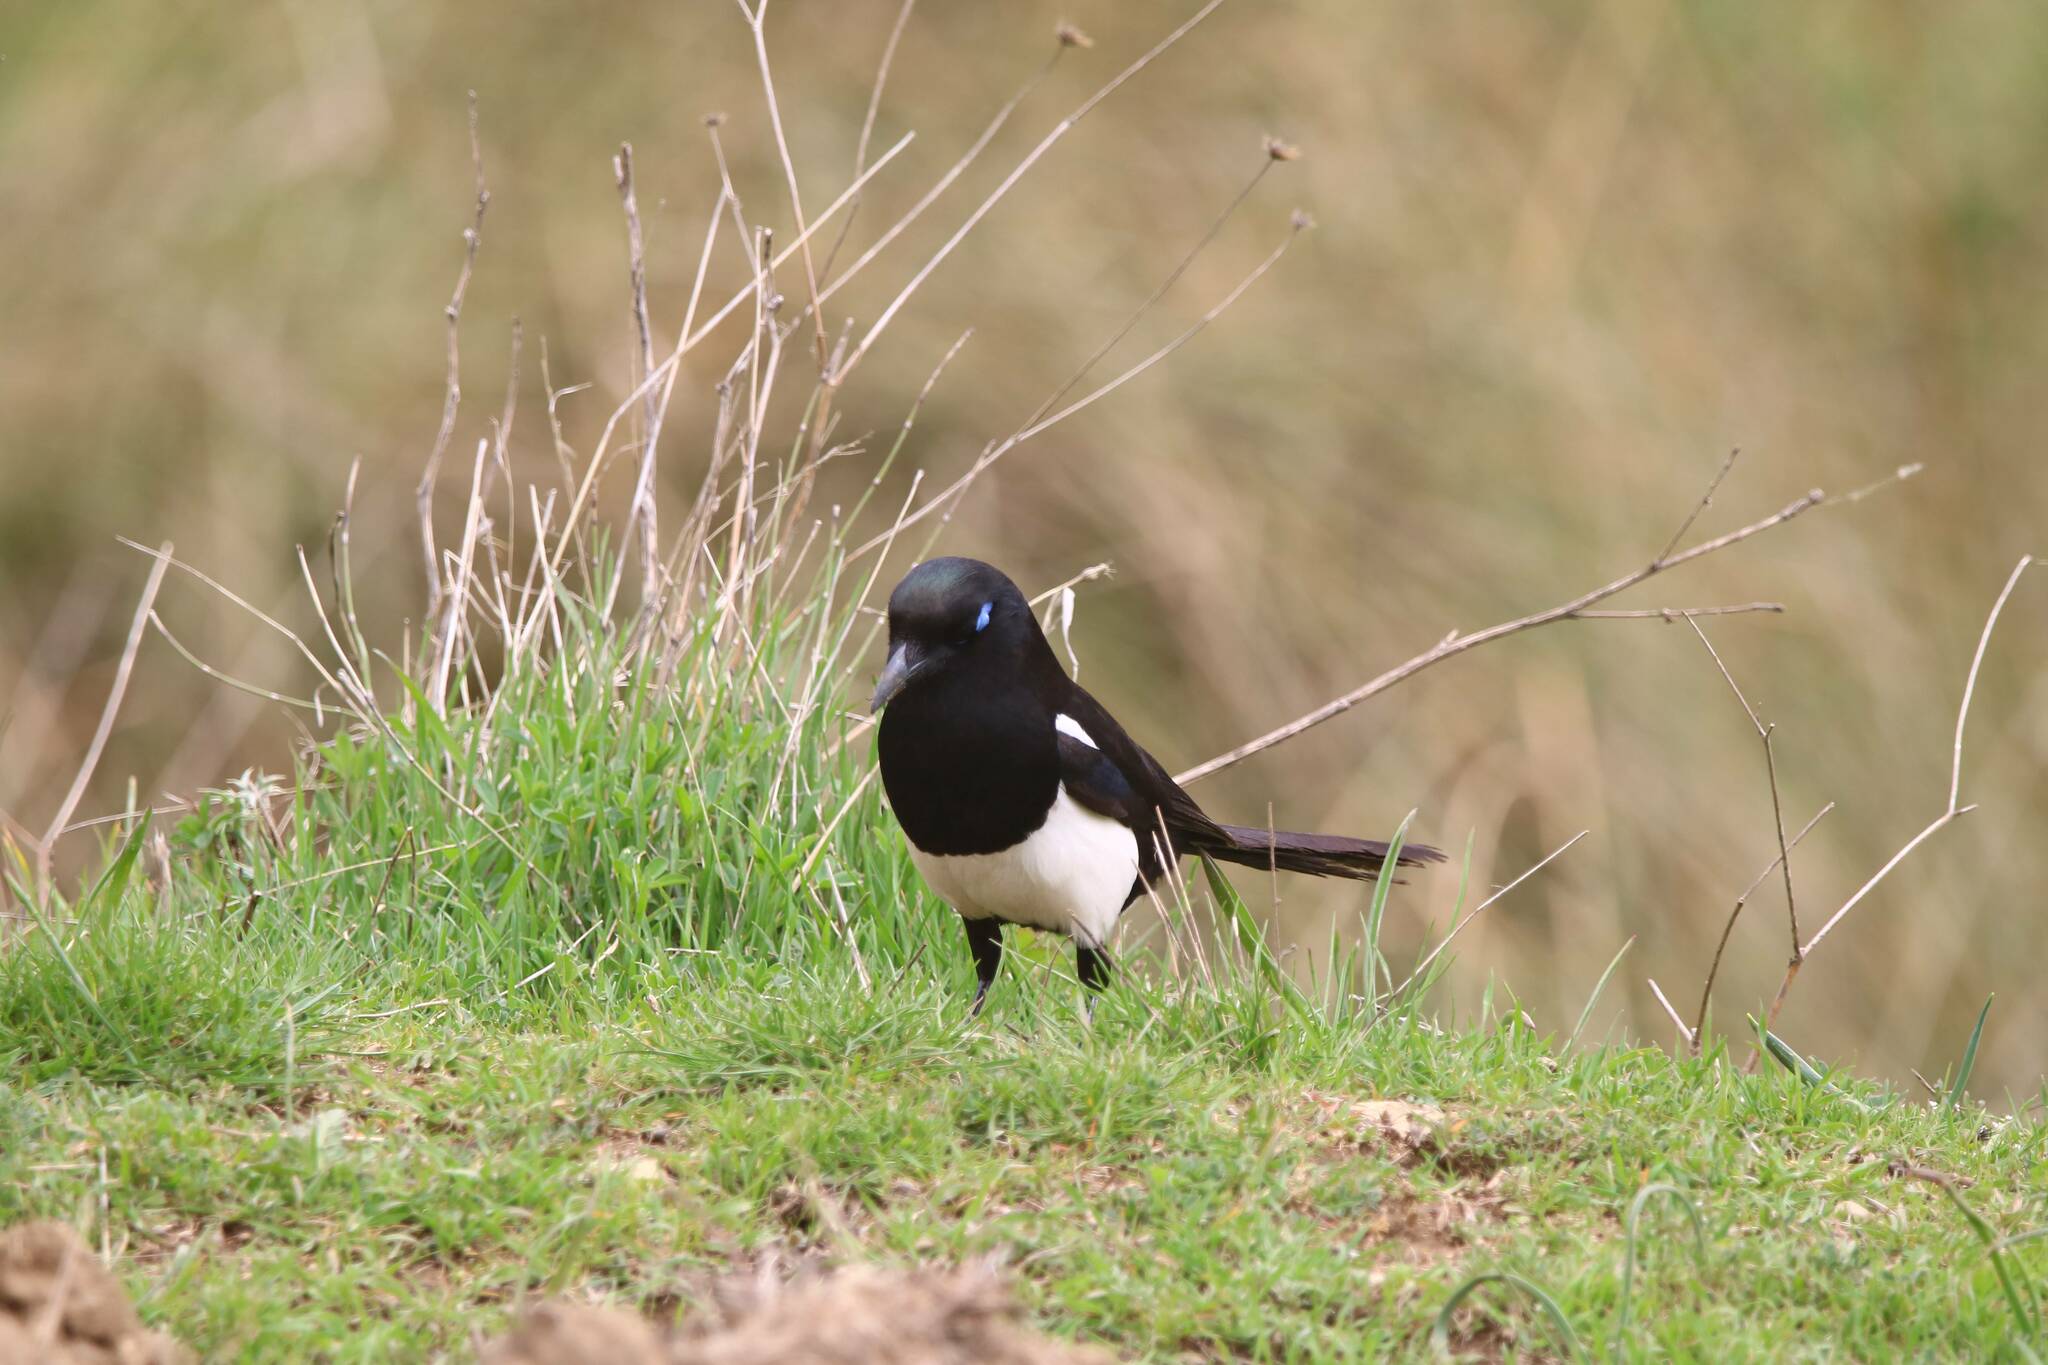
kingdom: Animalia
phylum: Chordata
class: Aves
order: Passeriformes
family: Corvidae
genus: Pica
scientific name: Pica mauritanica
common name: Maghreb magpie
